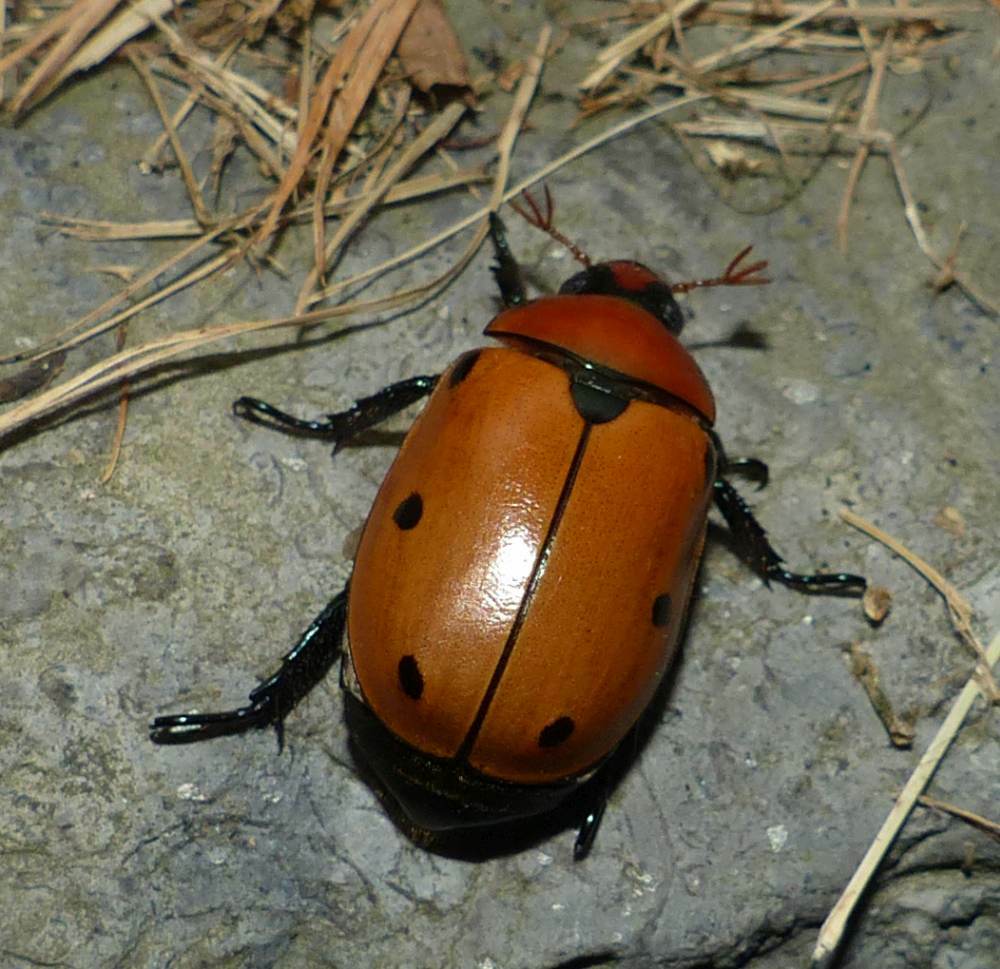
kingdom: Animalia
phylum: Arthropoda
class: Insecta
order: Coleoptera
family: Scarabaeidae
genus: Pelidnota
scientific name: Pelidnota punctata
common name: Grapevine beetle
